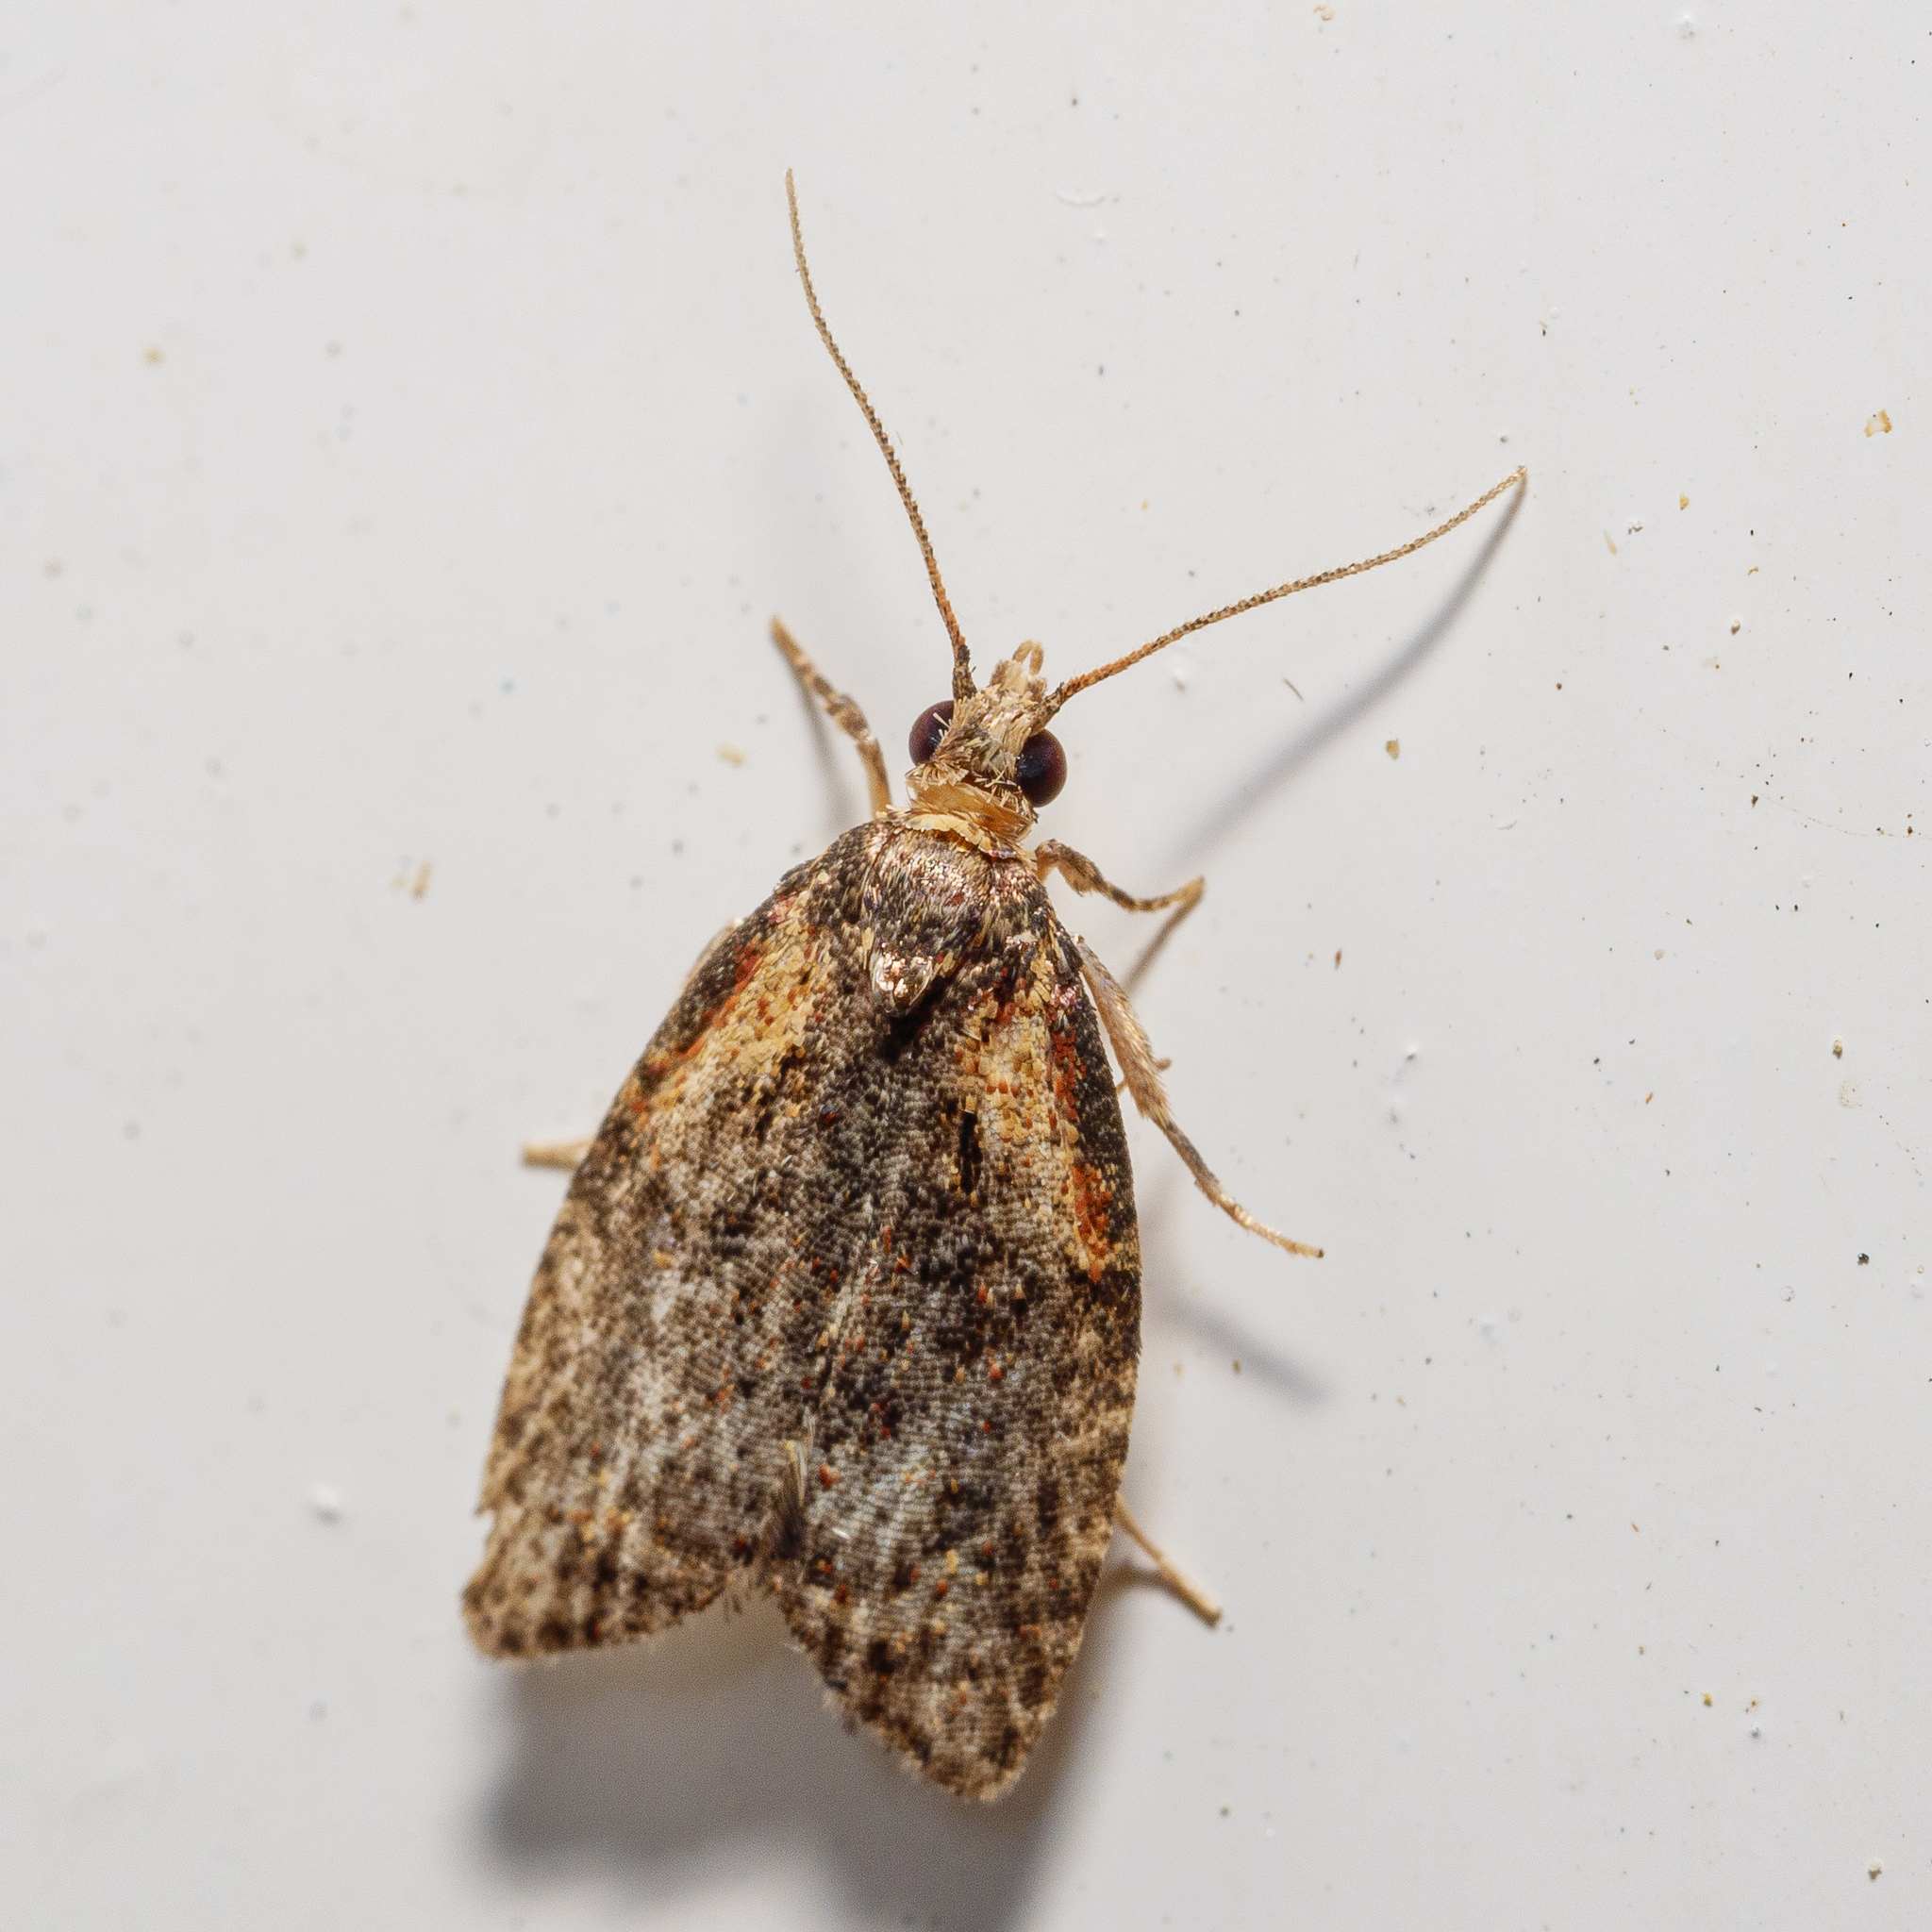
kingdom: Animalia
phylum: Arthropoda
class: Insecta
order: Lepidoptera
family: Tortricidae
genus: Capua
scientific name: Capua intractana
